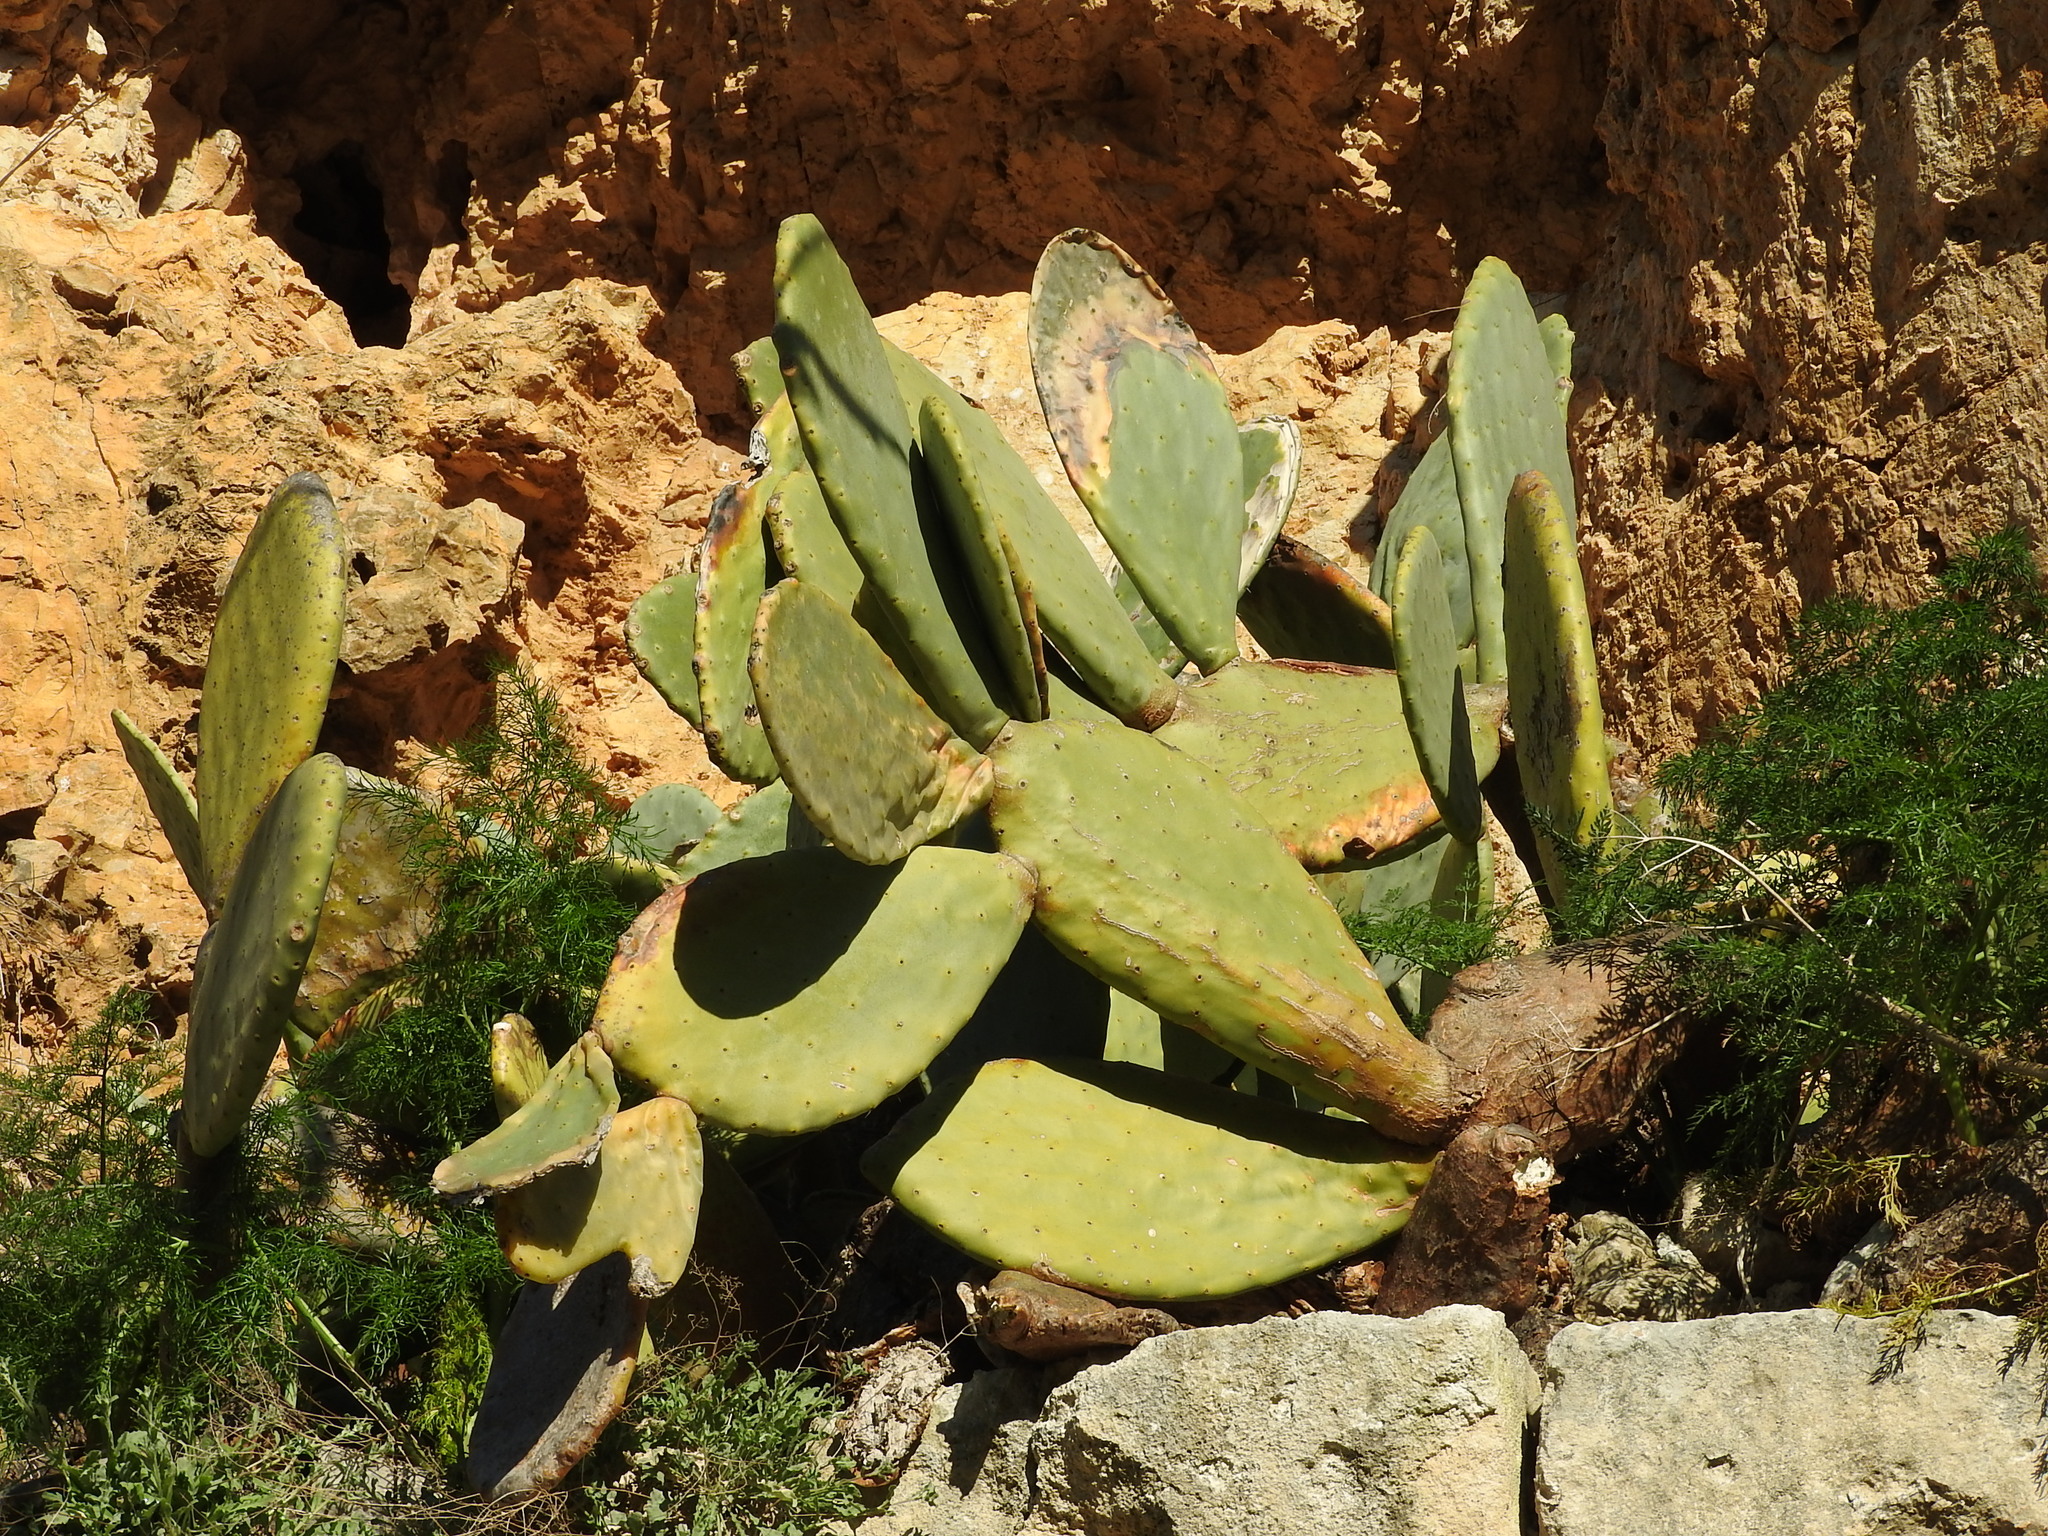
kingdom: Plantae
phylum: Tracheophyta
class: Magnoliopsida
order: Caryophyllales
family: Cactaceae
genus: Opuntia
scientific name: Opuntia ficus-indica
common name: Barbary fig
